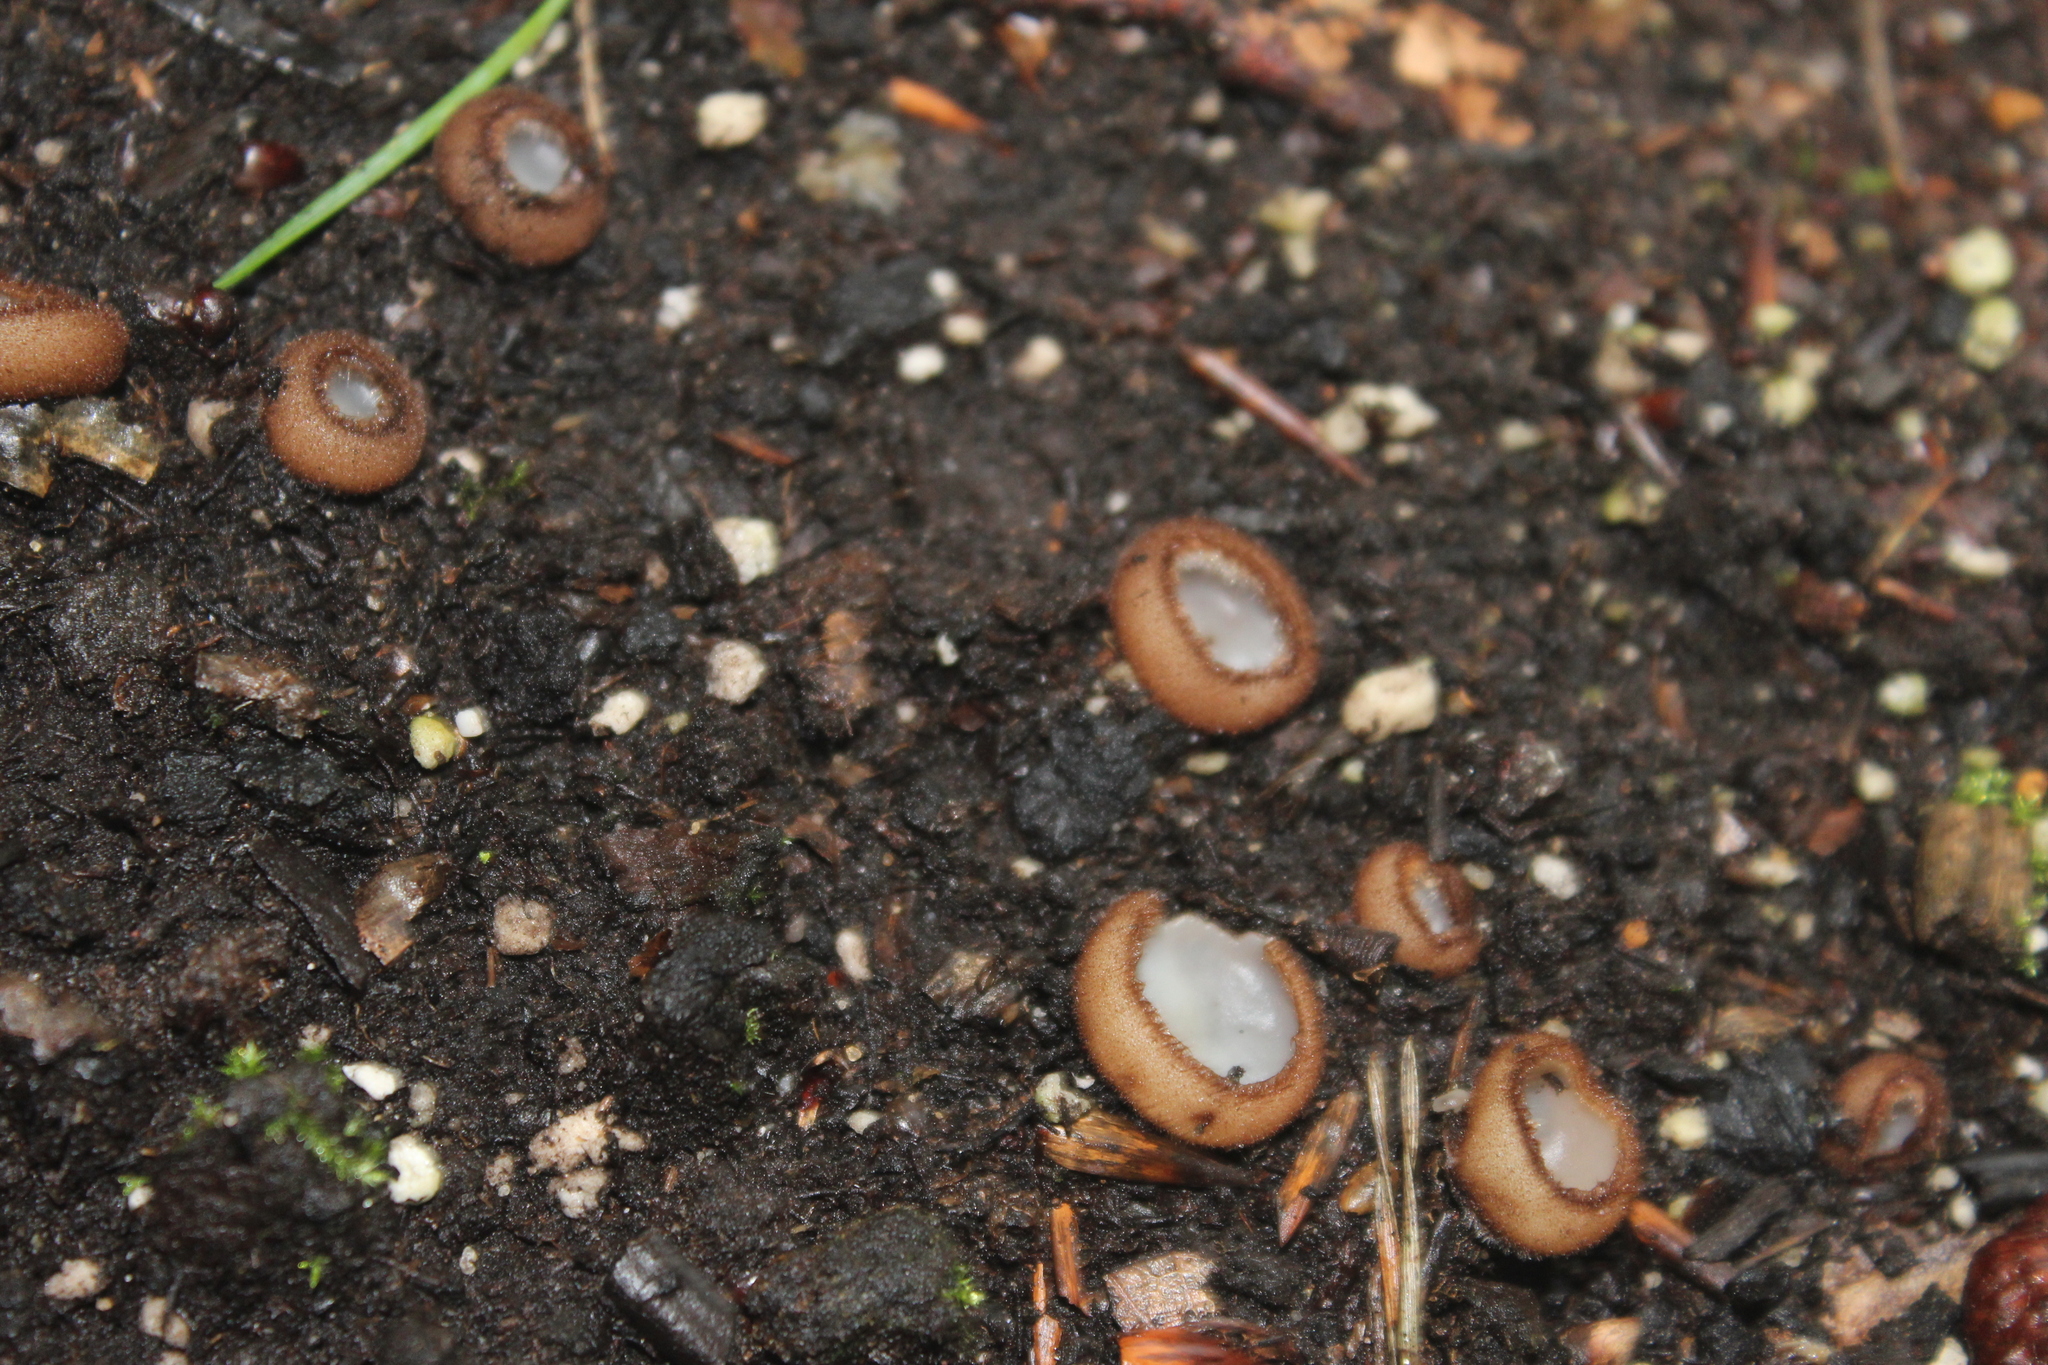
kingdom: Fungi
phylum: Ascomycota
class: Pezizomycetes
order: Pezizales
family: Pyronemataceae
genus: Humaria
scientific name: Humaria hemisphaerica
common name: Glazed cup
